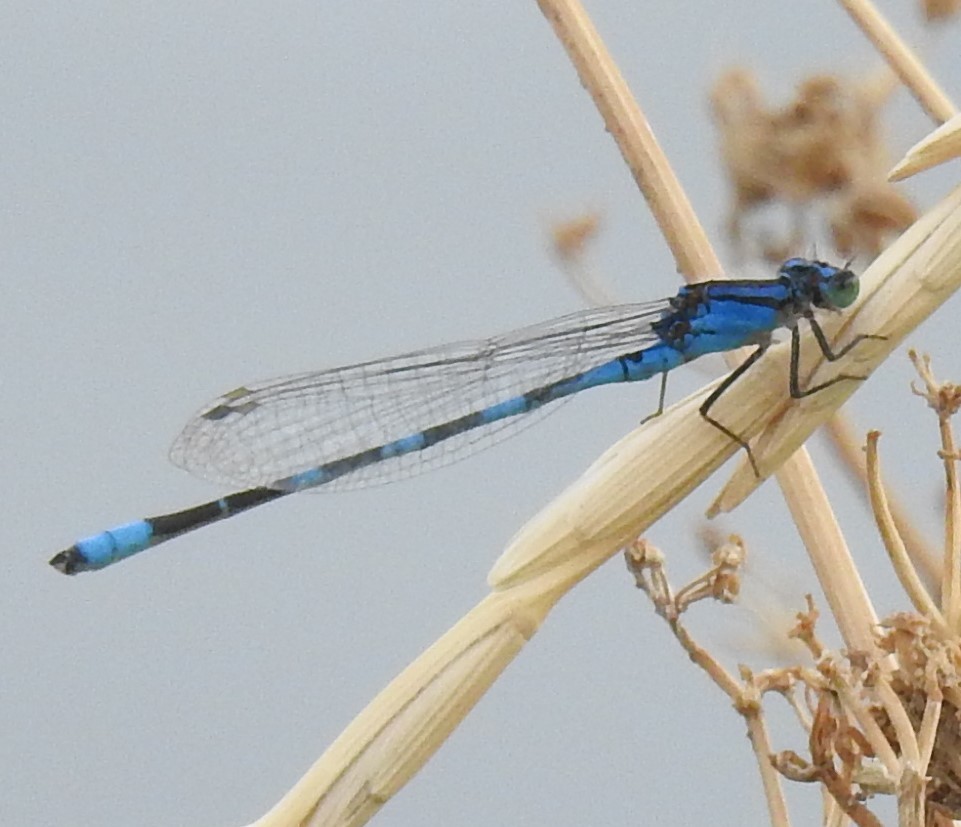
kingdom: Animalia
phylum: Arthropoda
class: Insecta
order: Odonata
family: Coenagrionidae
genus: Enallagma
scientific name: Enallagma carunculatum
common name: Tule bluet
